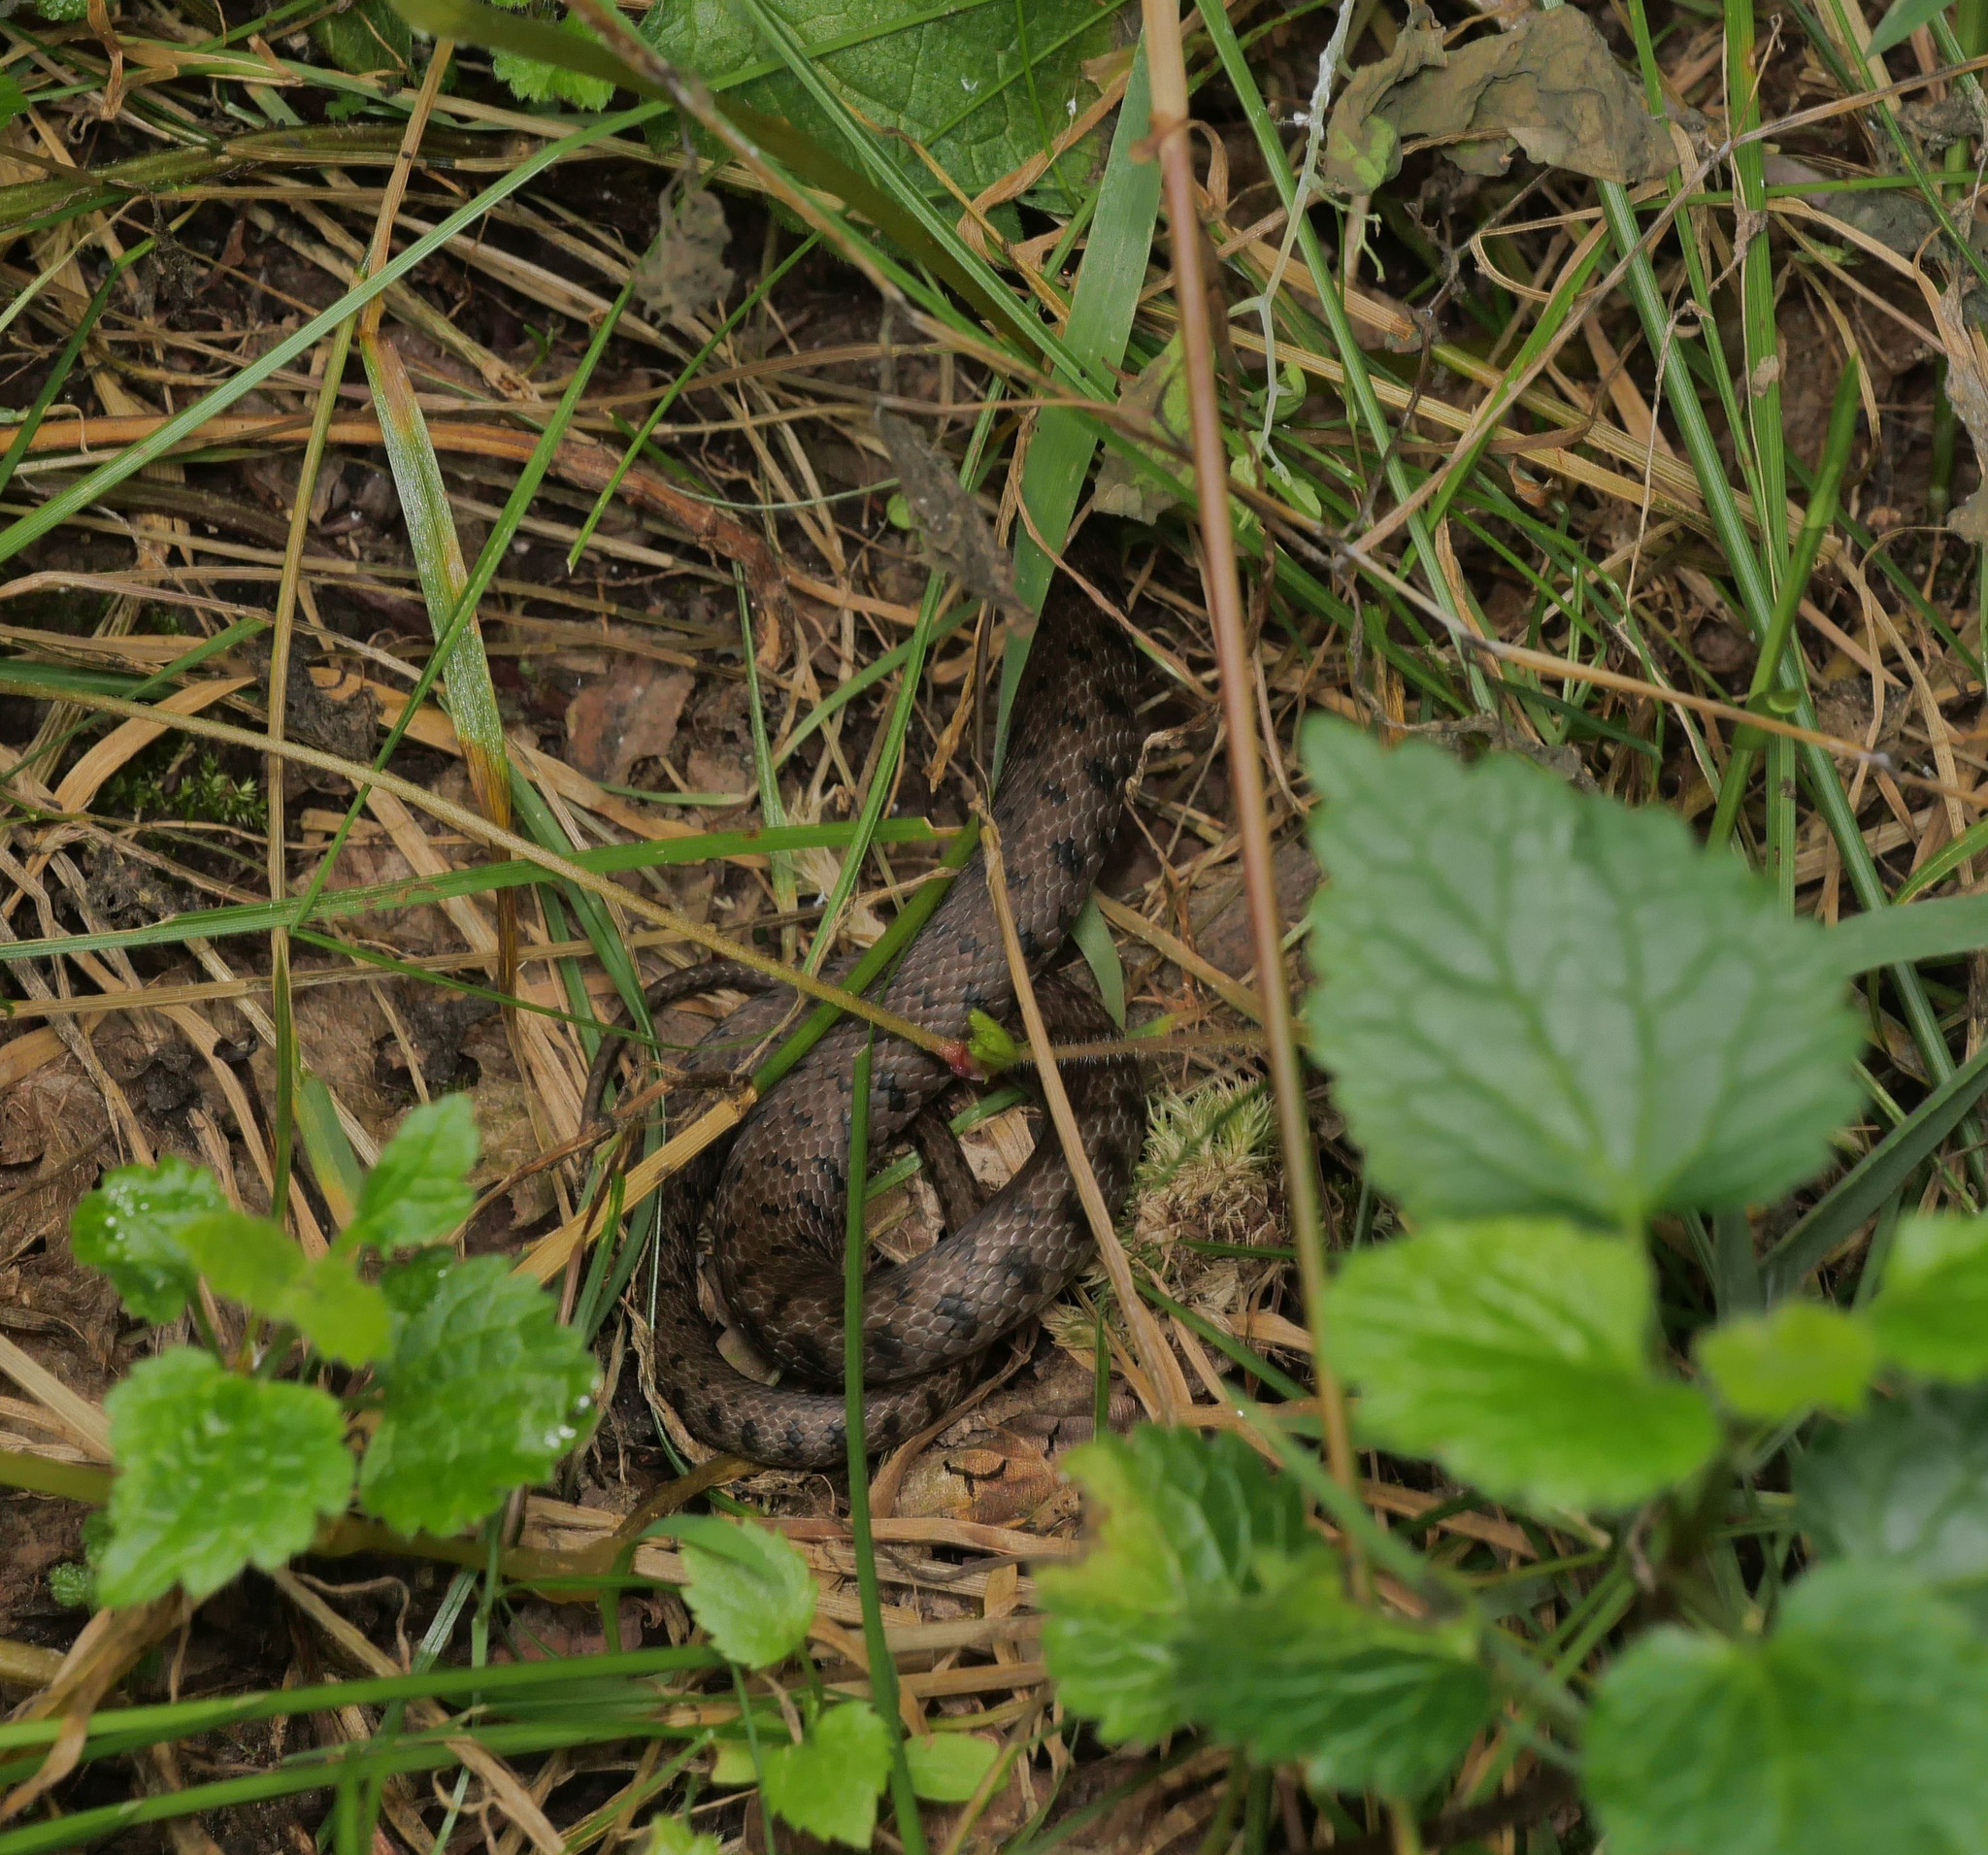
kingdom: Animalia
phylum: Chordata
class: Squamata
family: Colubridae
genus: Natrix
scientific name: Natrix helvetica
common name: Banded grass snake
